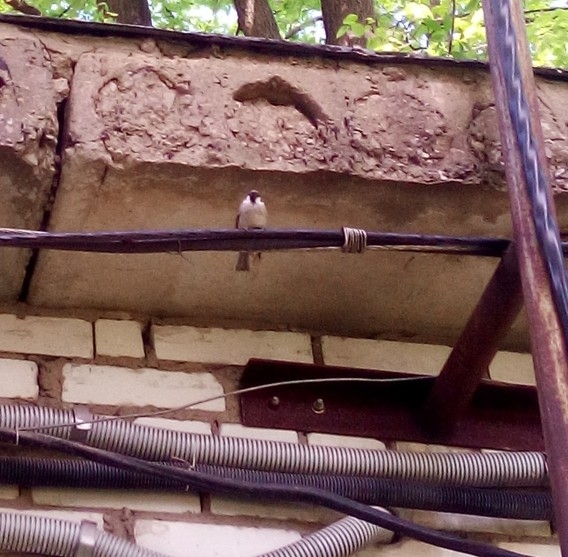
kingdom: Animalia
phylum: Chordata
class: Aves
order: Passeriformes
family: Passeridae
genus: Passer
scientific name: Passer montanus
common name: Eurasian tree sparrow
